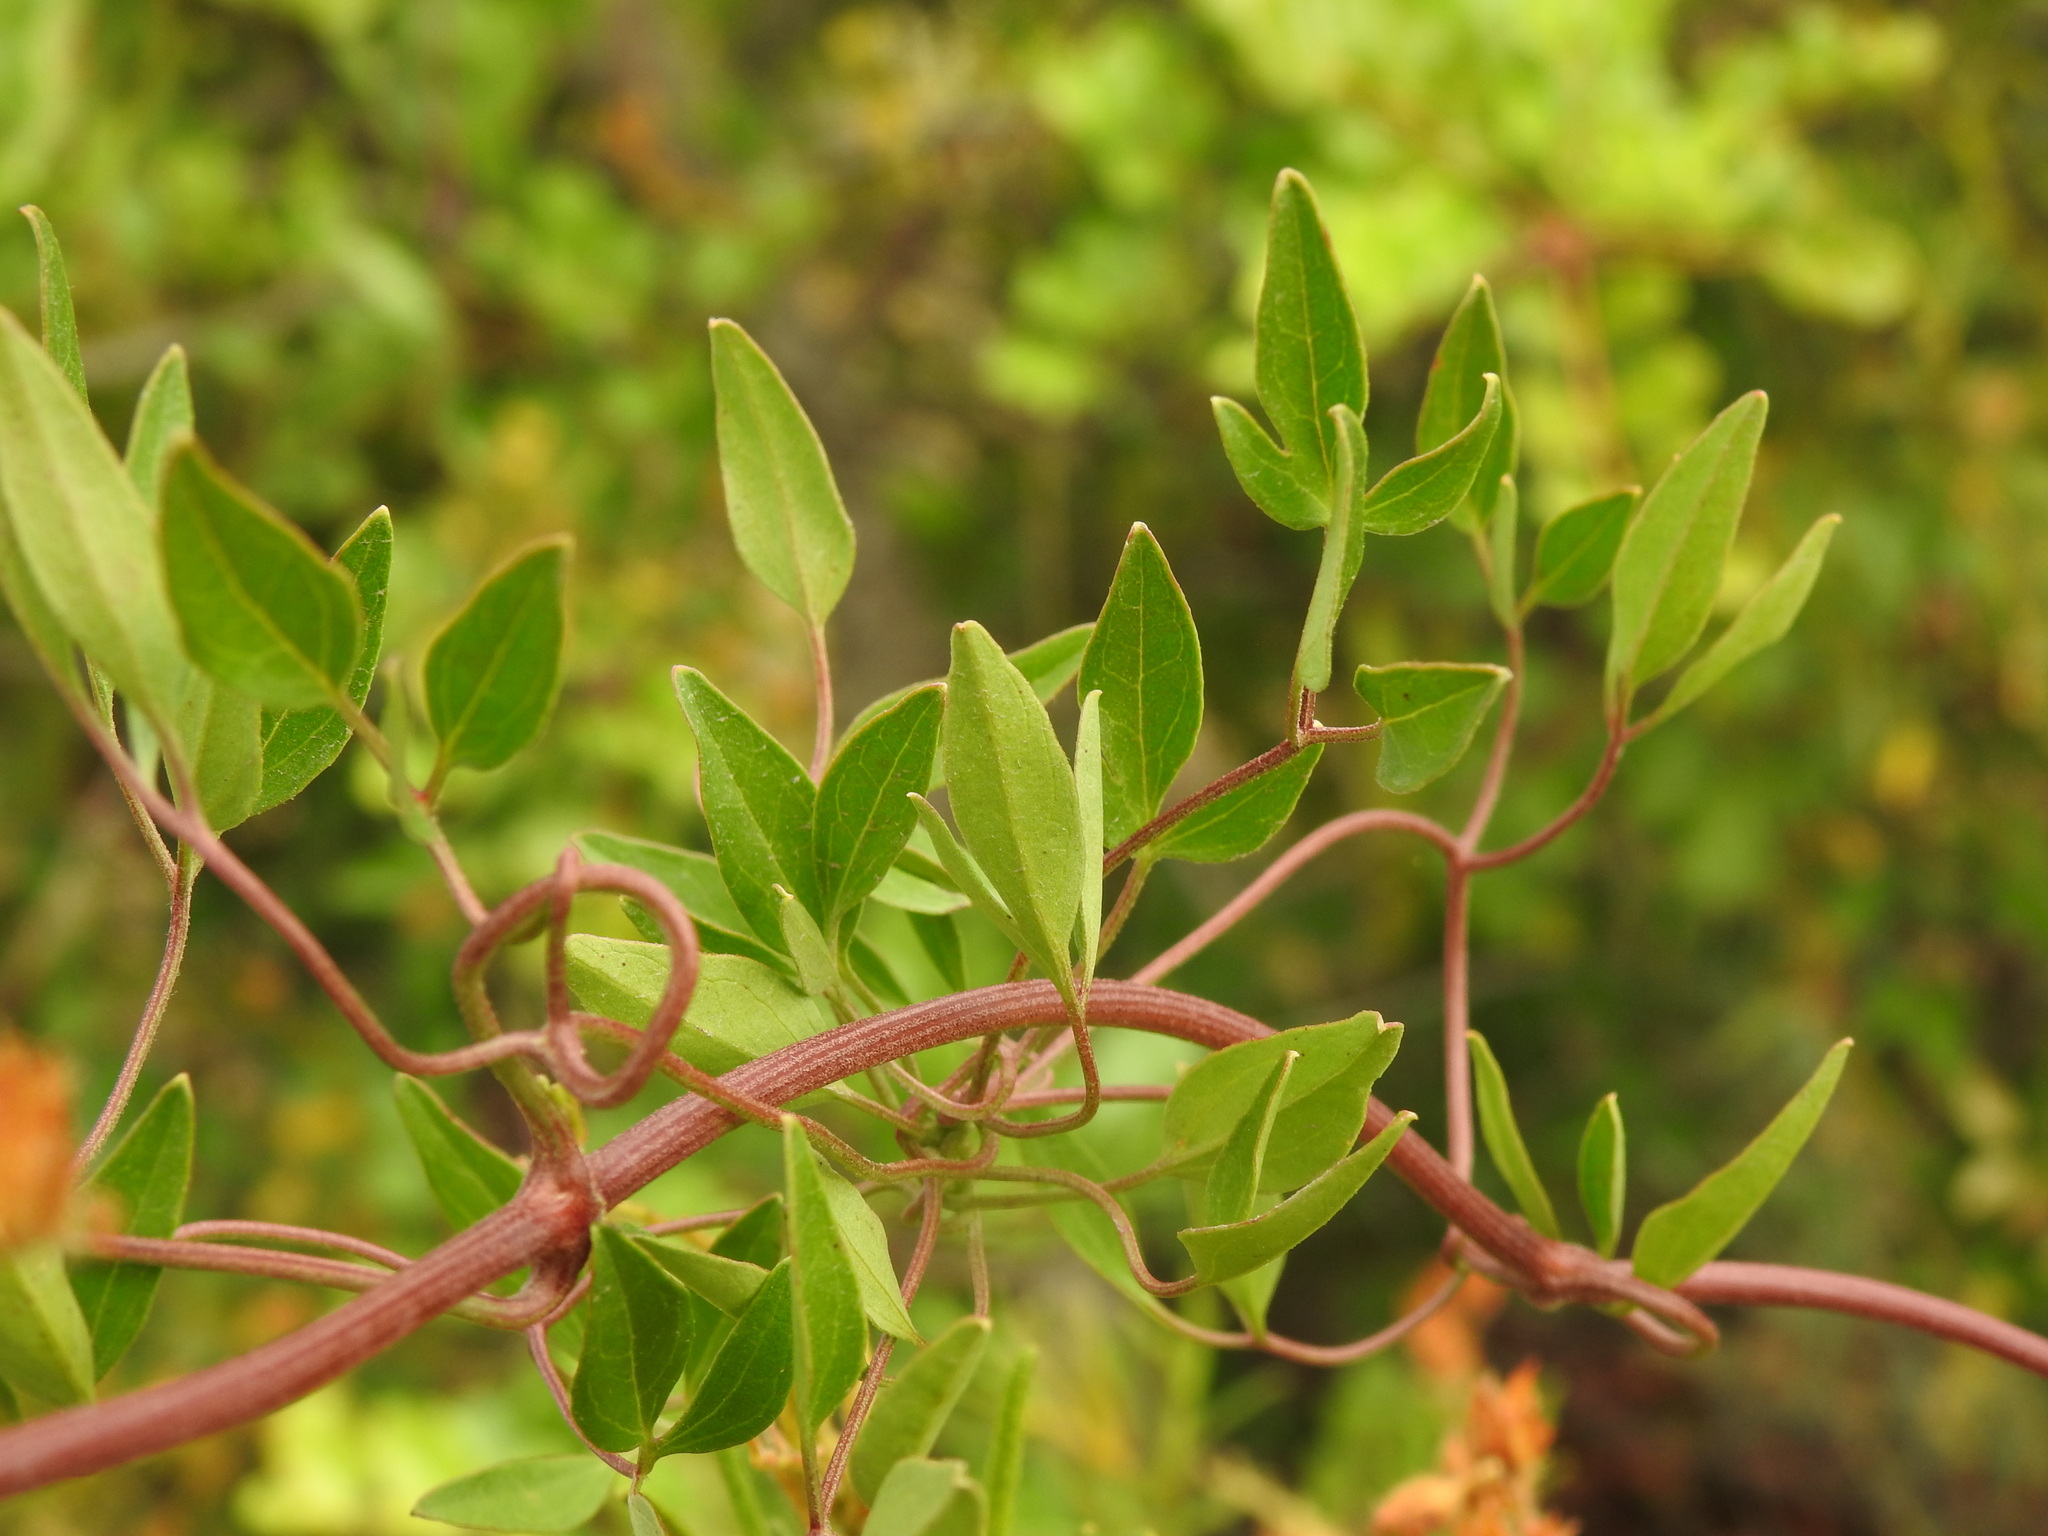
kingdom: Plantae
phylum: Tracheophyta
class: Magnoliopsida
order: Ranunculales
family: Ranunculaceae
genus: Clematis
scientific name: Clematis flammula
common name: Virgin's-bower
